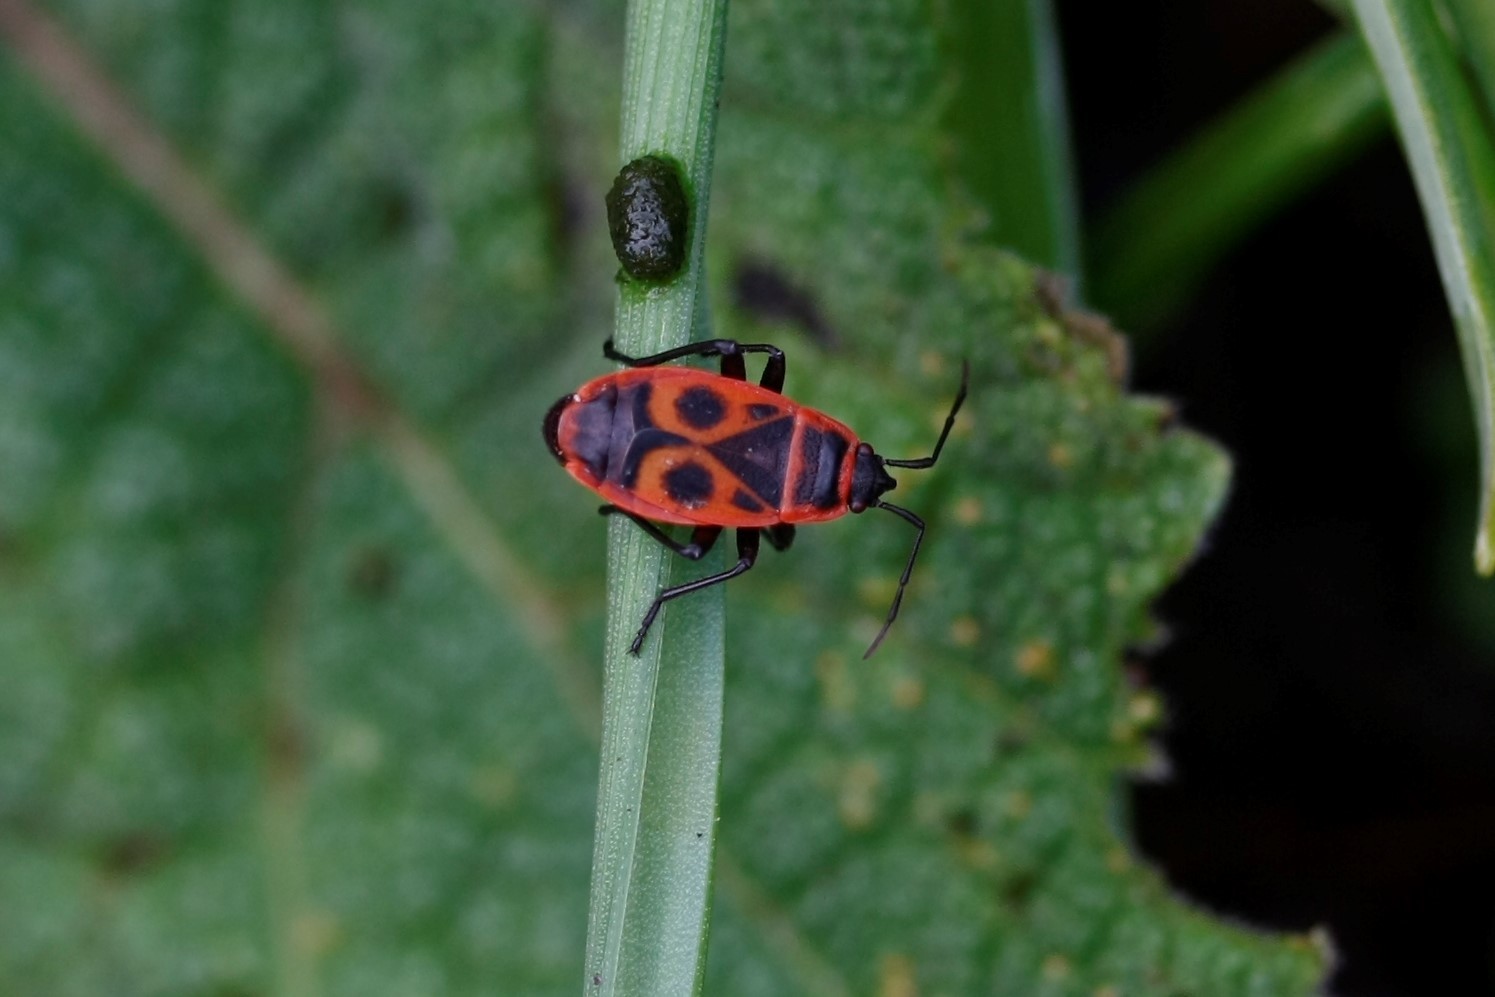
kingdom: Animalia
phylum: Arthropoda
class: Insecta
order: Hemiptera
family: Pyrrhocoridae
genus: Pyrrhocoris
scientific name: Pyrrhocoris apterus
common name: Firebug
